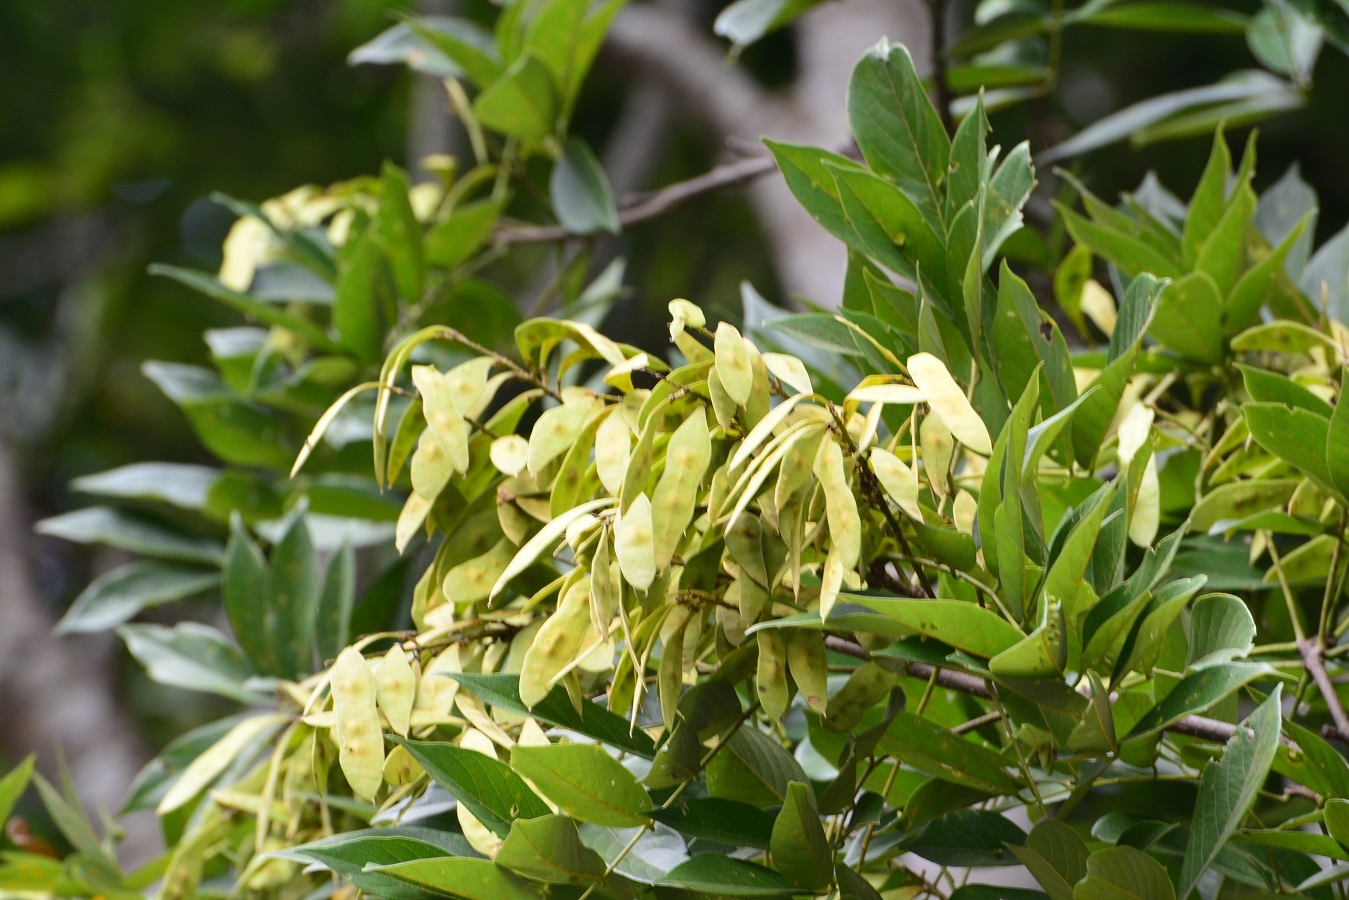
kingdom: Plantae
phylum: Tracheophyta
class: Magnoliopsida
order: Fabales
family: Fabaceae
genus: Lonchocarpus
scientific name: Lonchocarpus heptaphyllus
